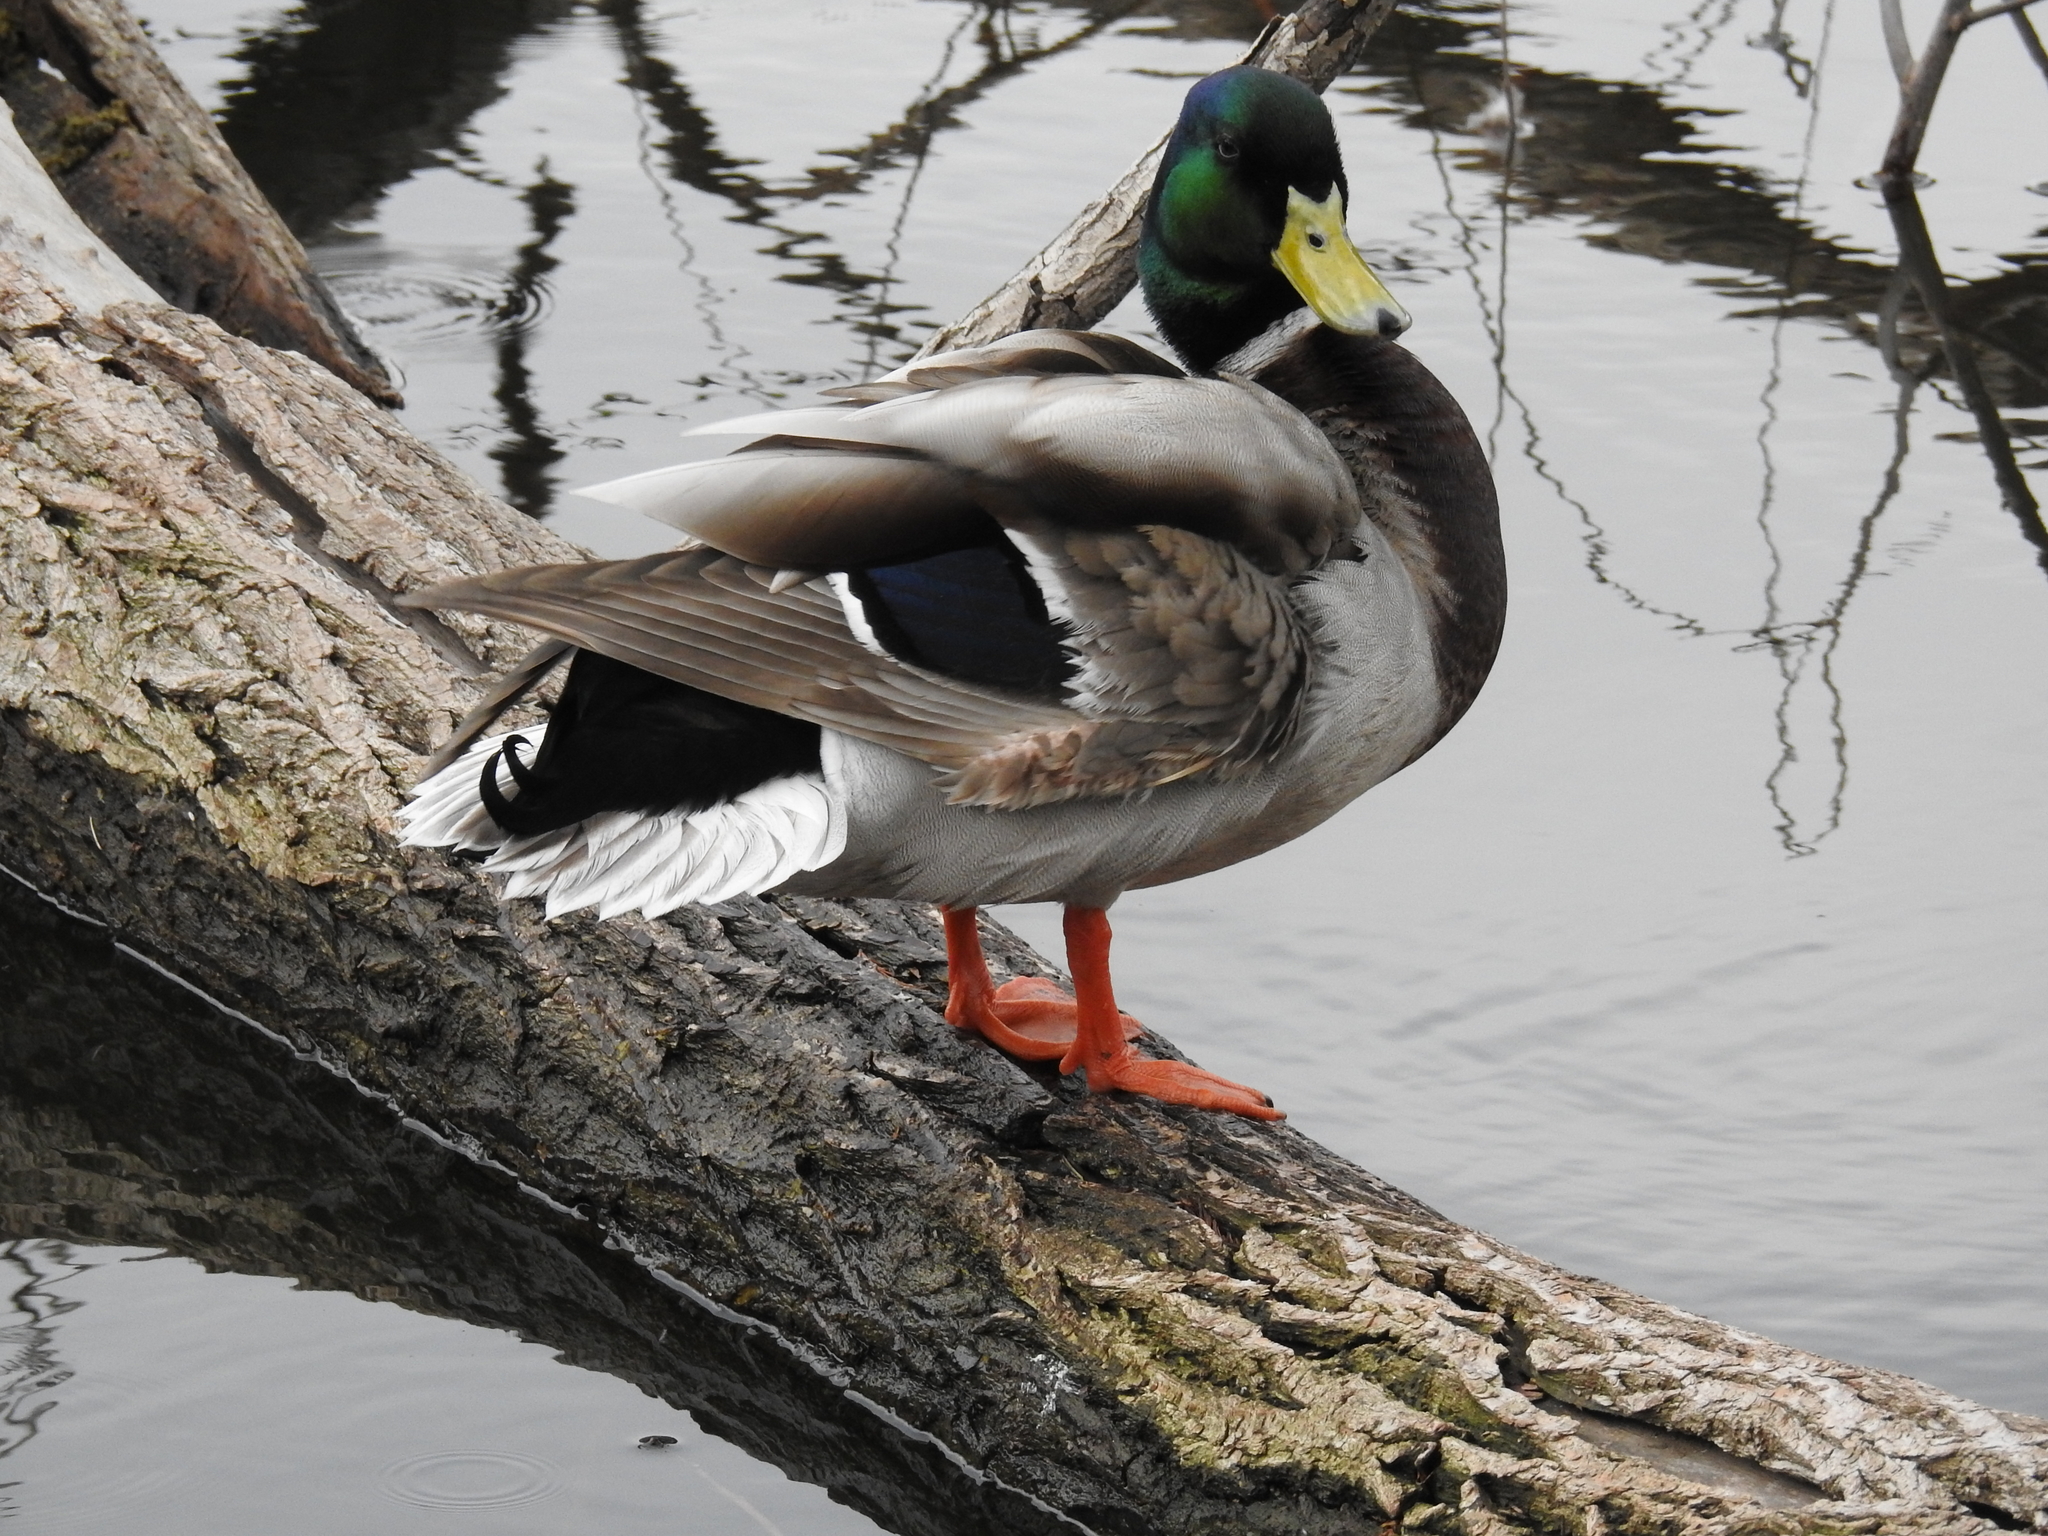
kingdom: Animalia
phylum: Chordata
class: Aves
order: Anseriformes
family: Anatidae
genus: Anas
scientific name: Anas platyrhynchos
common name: Mallard
